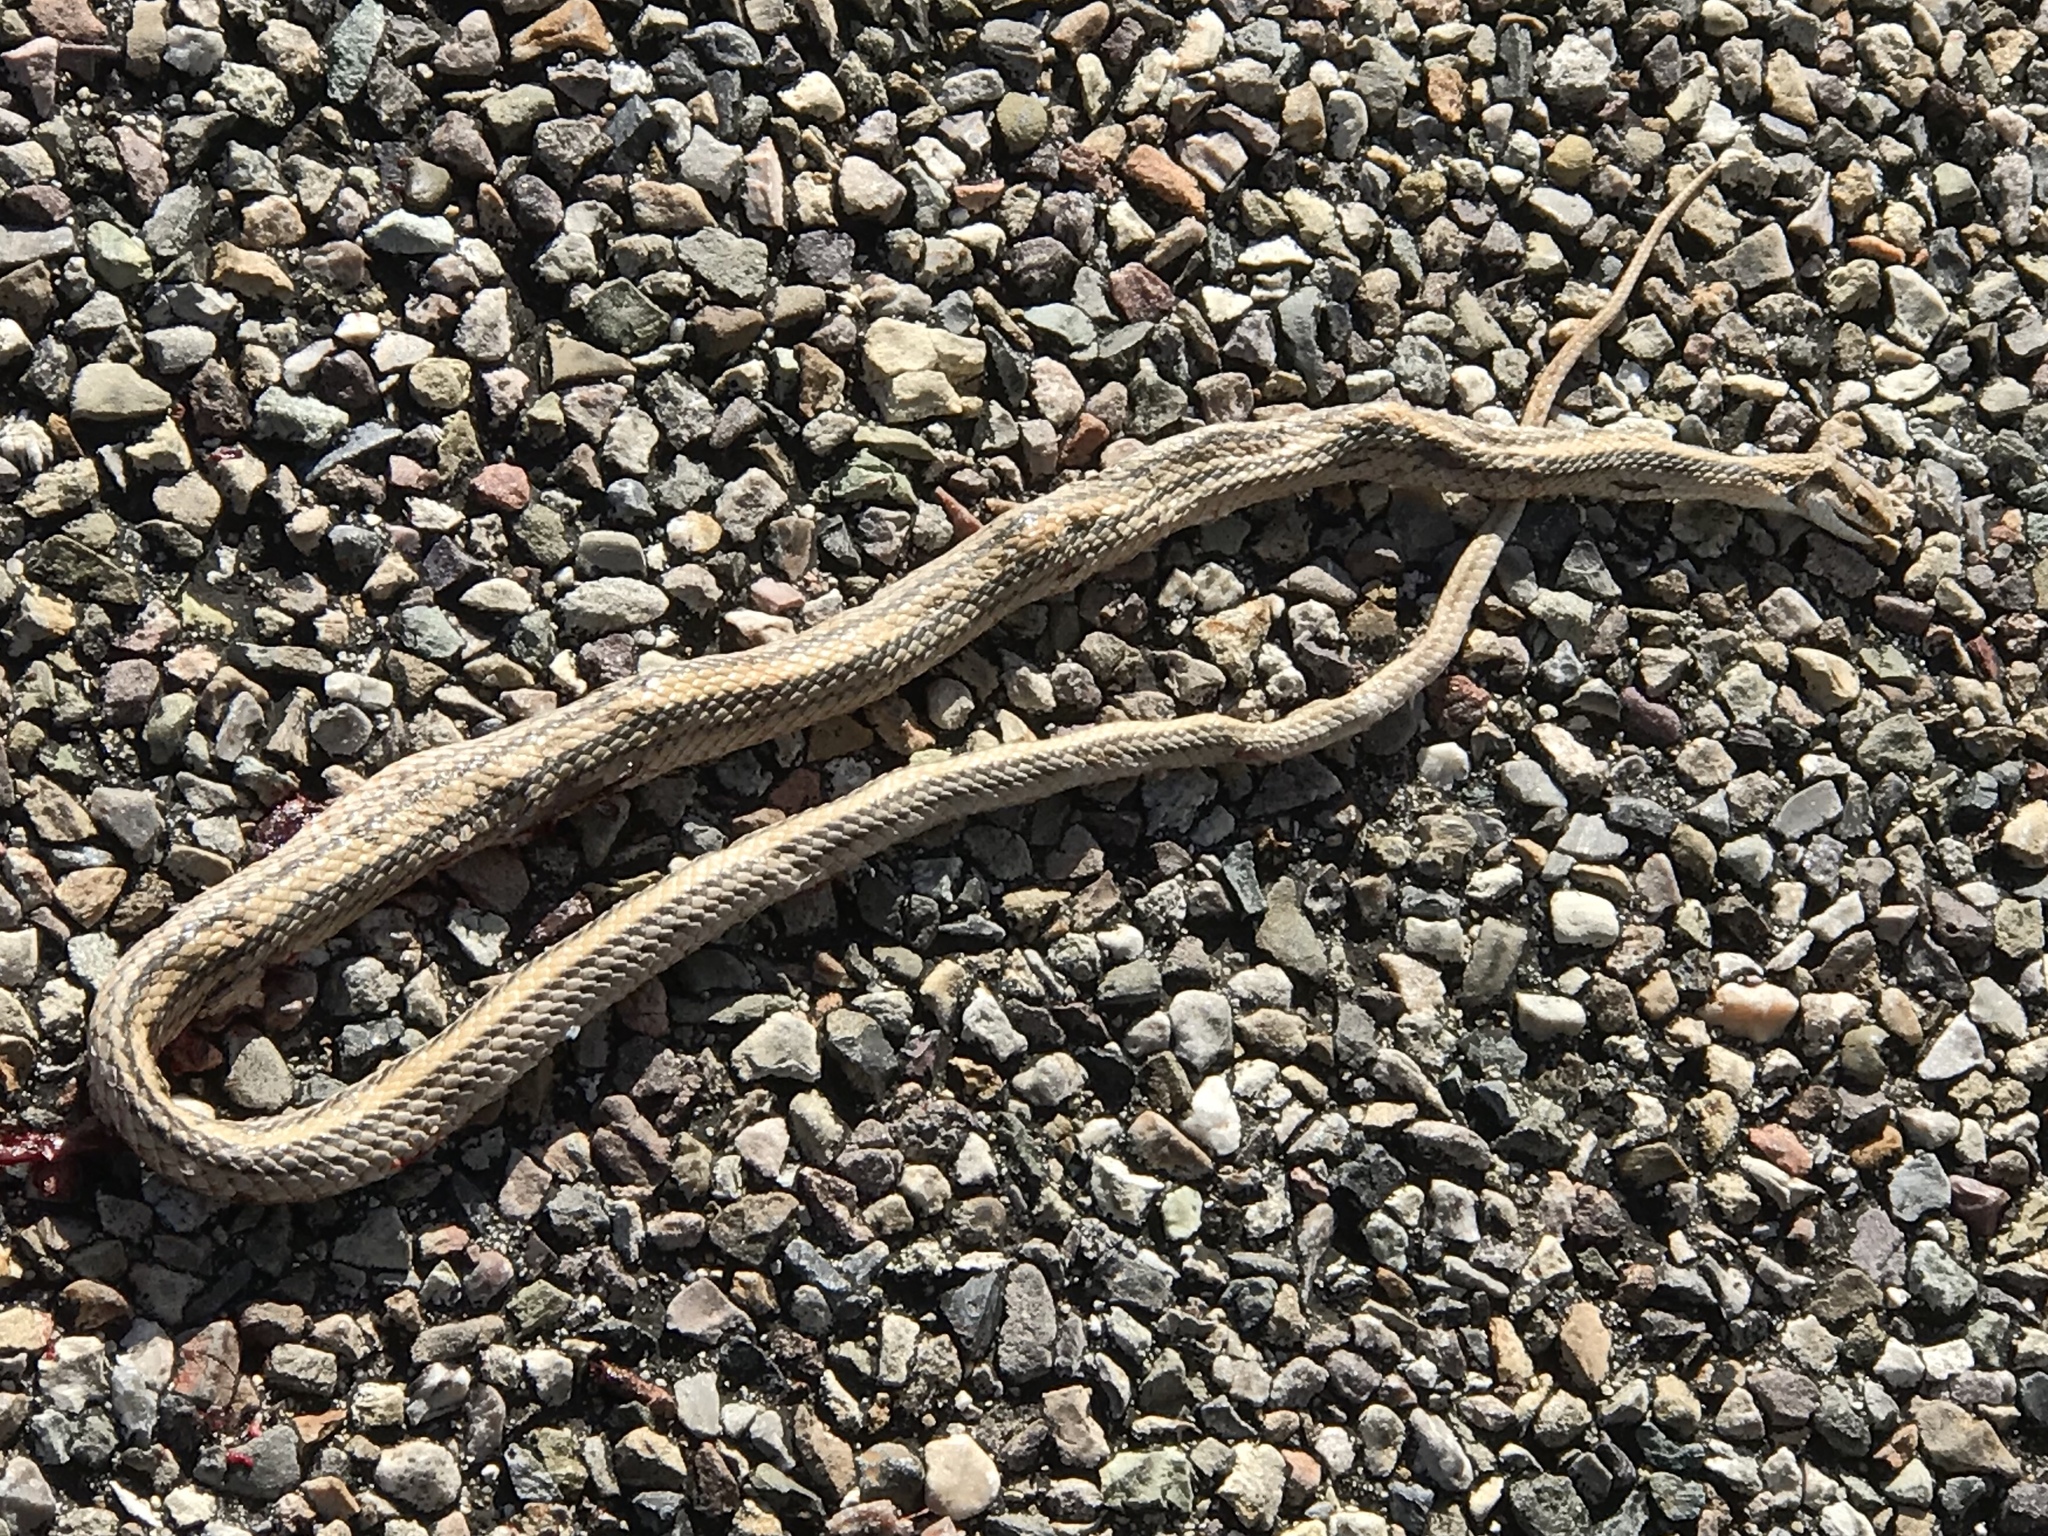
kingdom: Animalia
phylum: Chordata
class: Squamata
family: Colubridae
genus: Salvadora
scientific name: Salvadora deserticola
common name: Big bend patchnose snake
